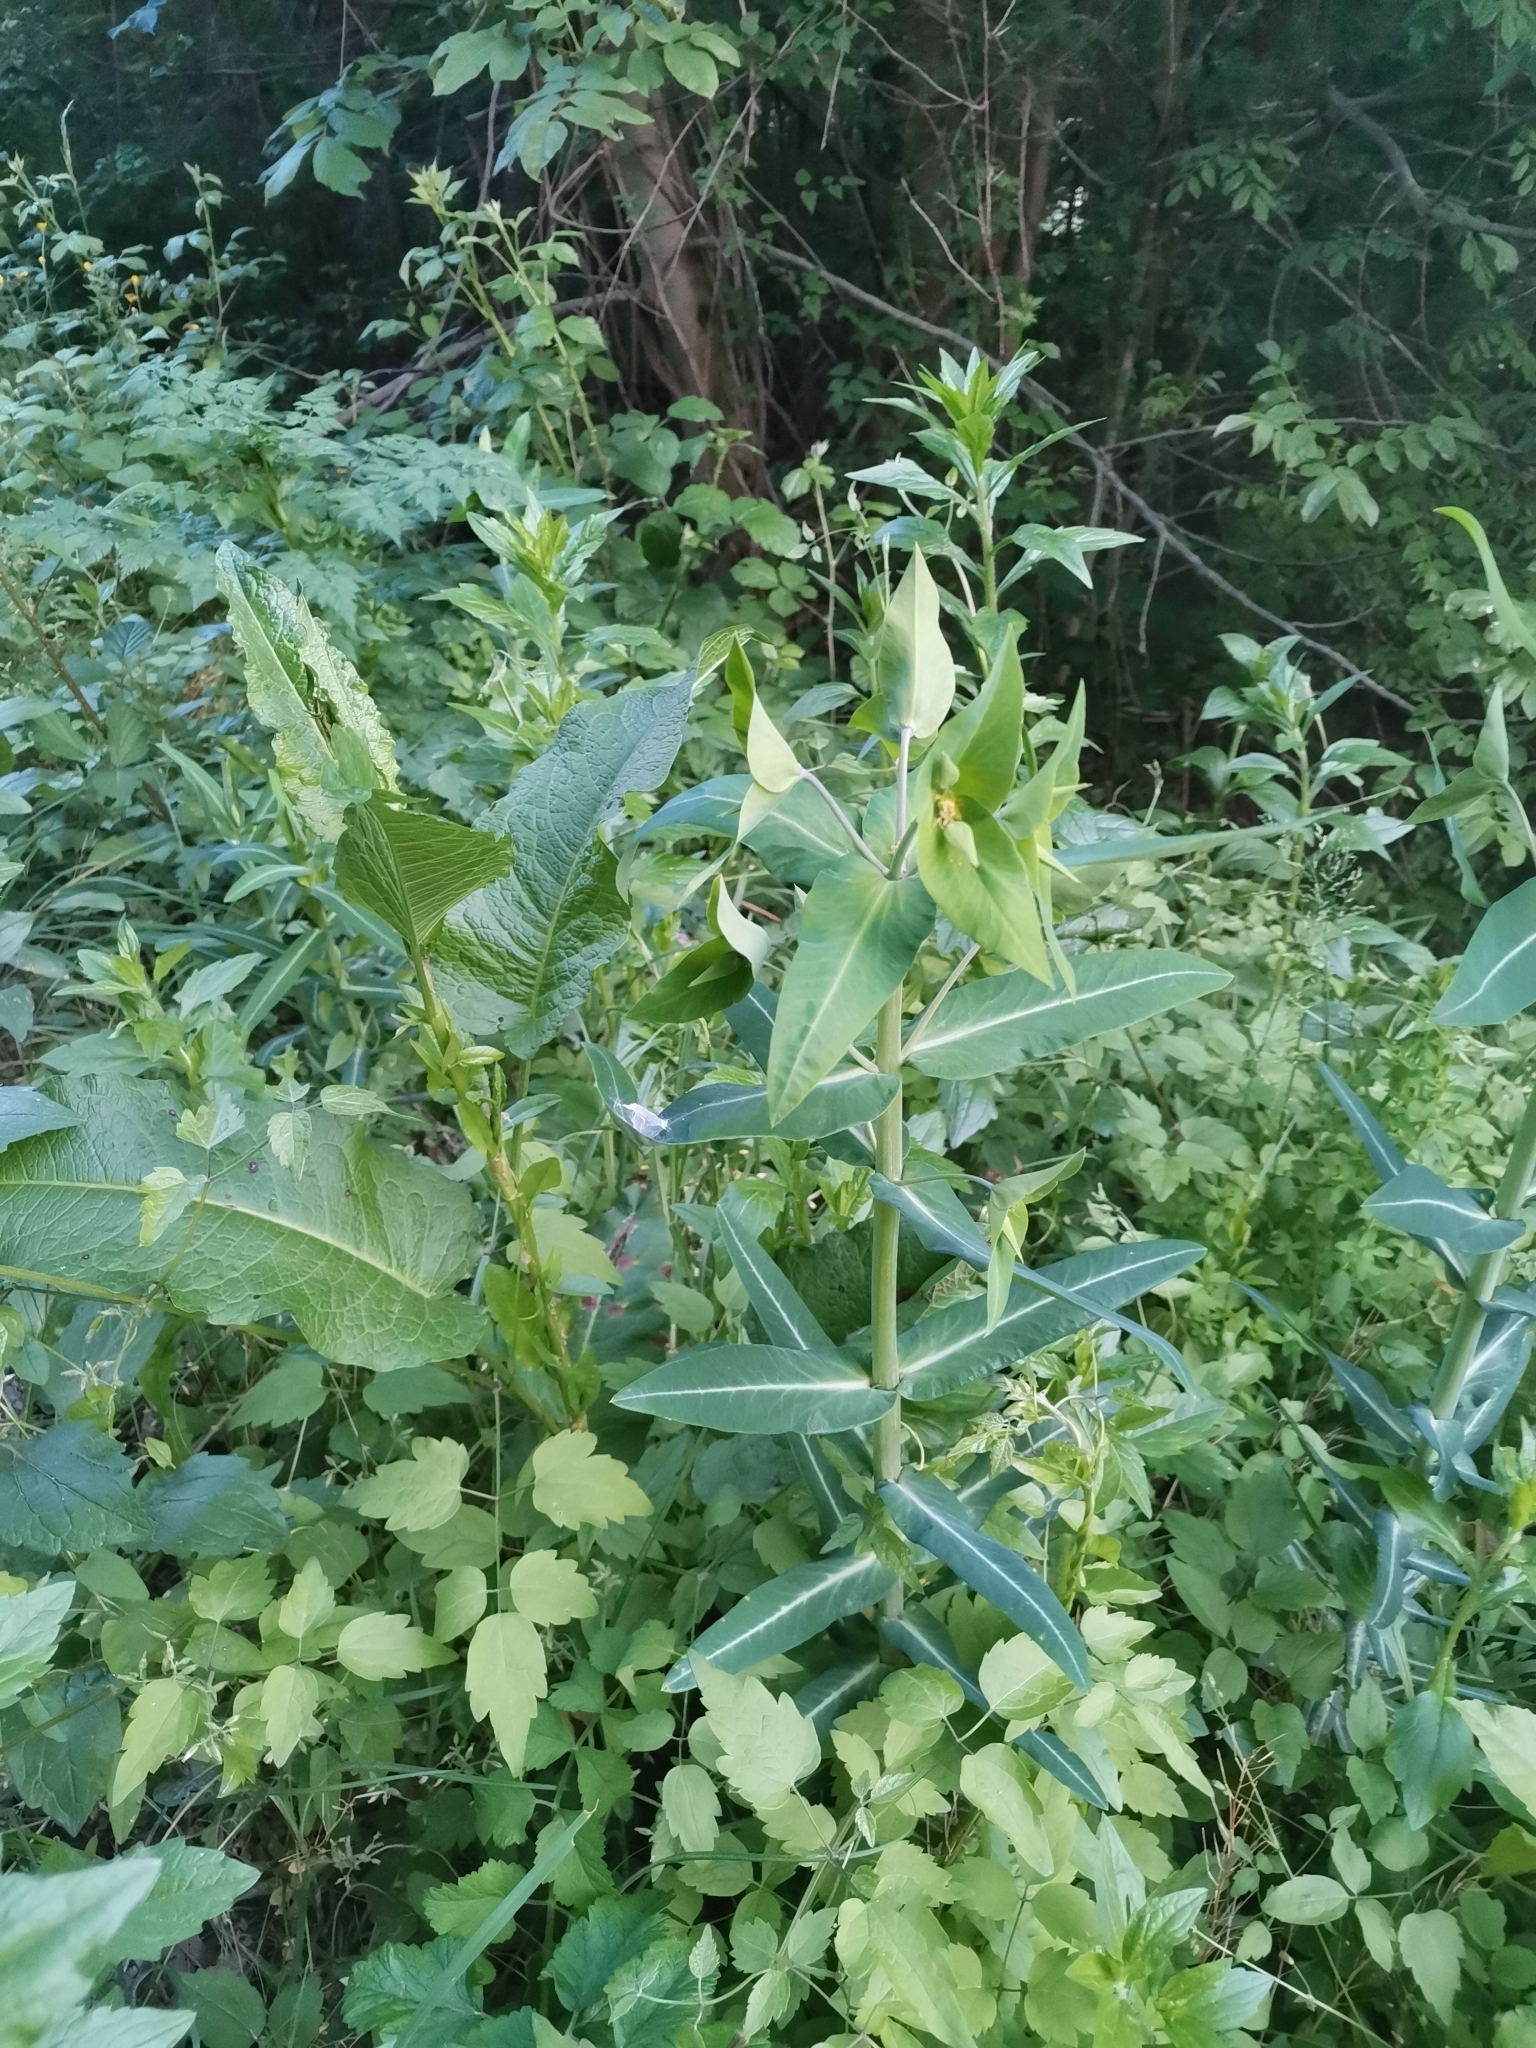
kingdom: Plantae
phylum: Tracheophyta
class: Magnoliopsida
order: Malpighiales
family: Euphorbiaceae
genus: Euphorbia
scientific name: Euphorbia lathyris
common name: Caper spurge
